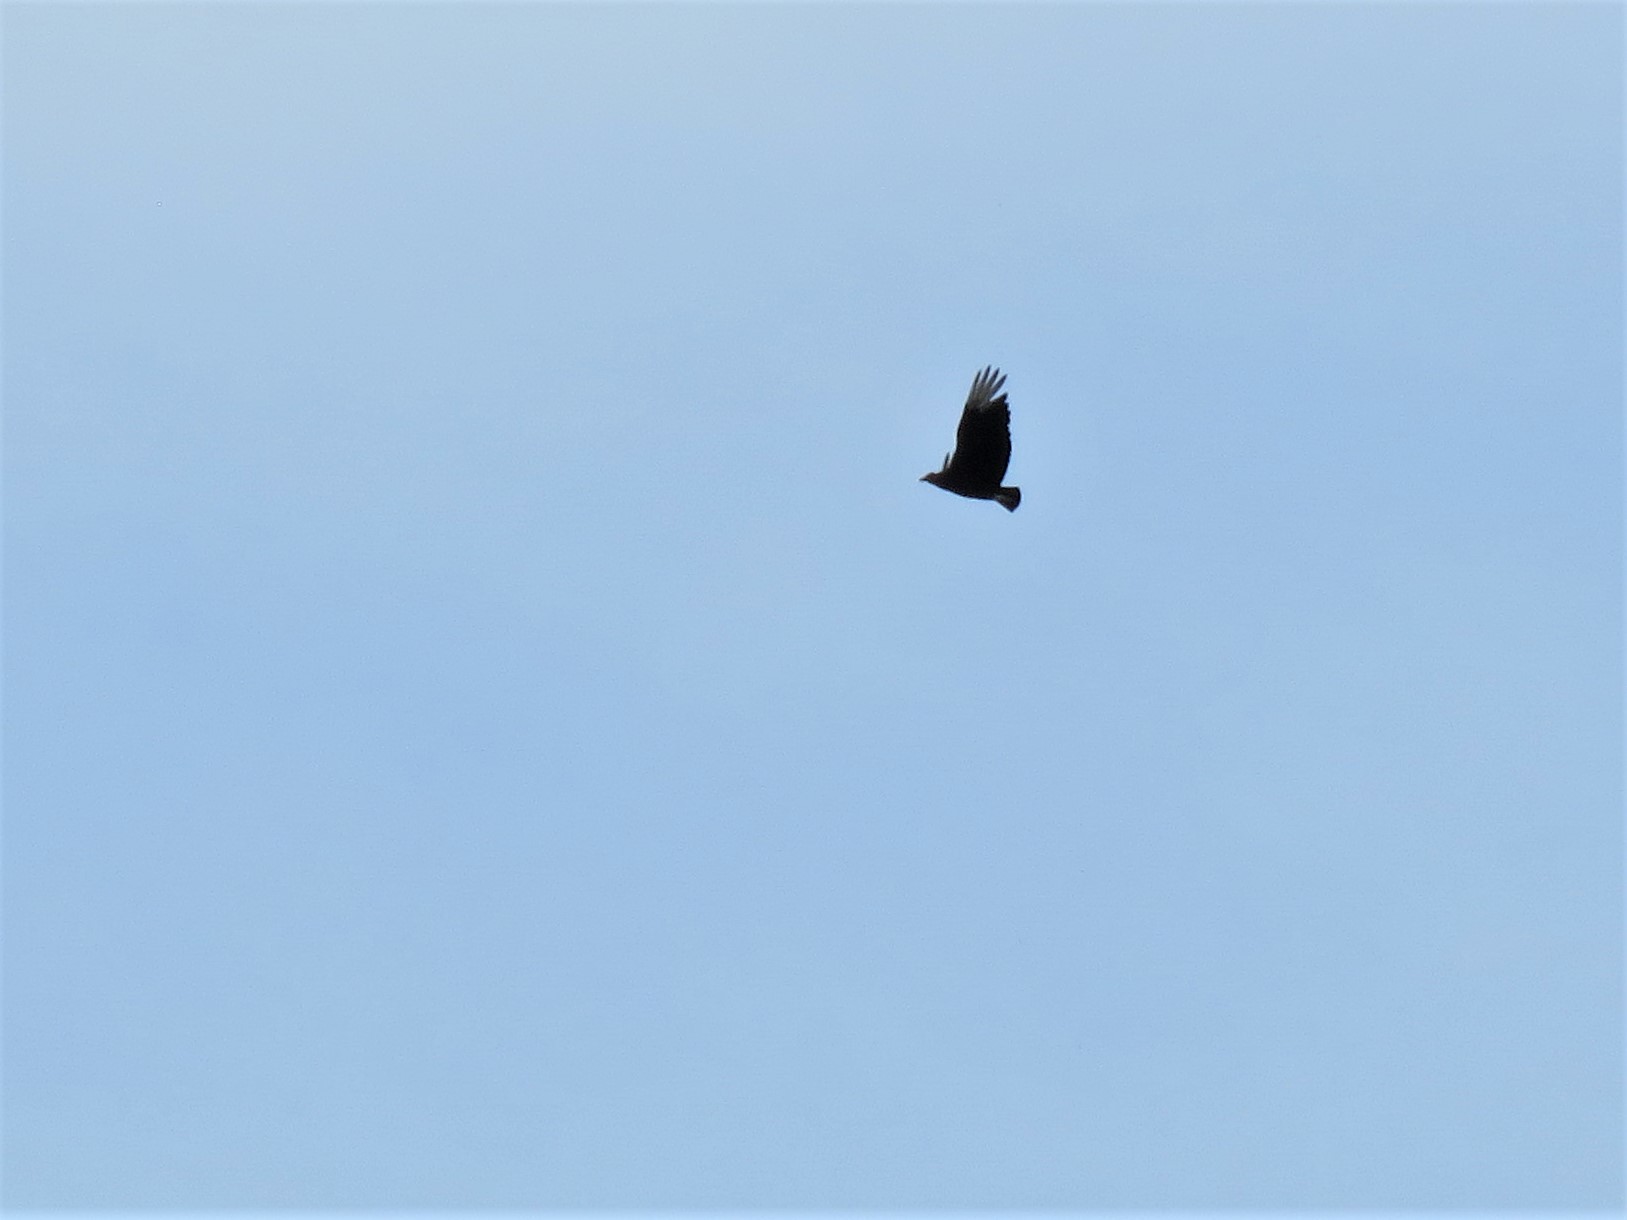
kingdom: Animalia
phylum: Chordata
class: Aves
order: Accipitriformes
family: Cathartidae
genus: Coragyps
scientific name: Coragyps atratus
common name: Black vulture
